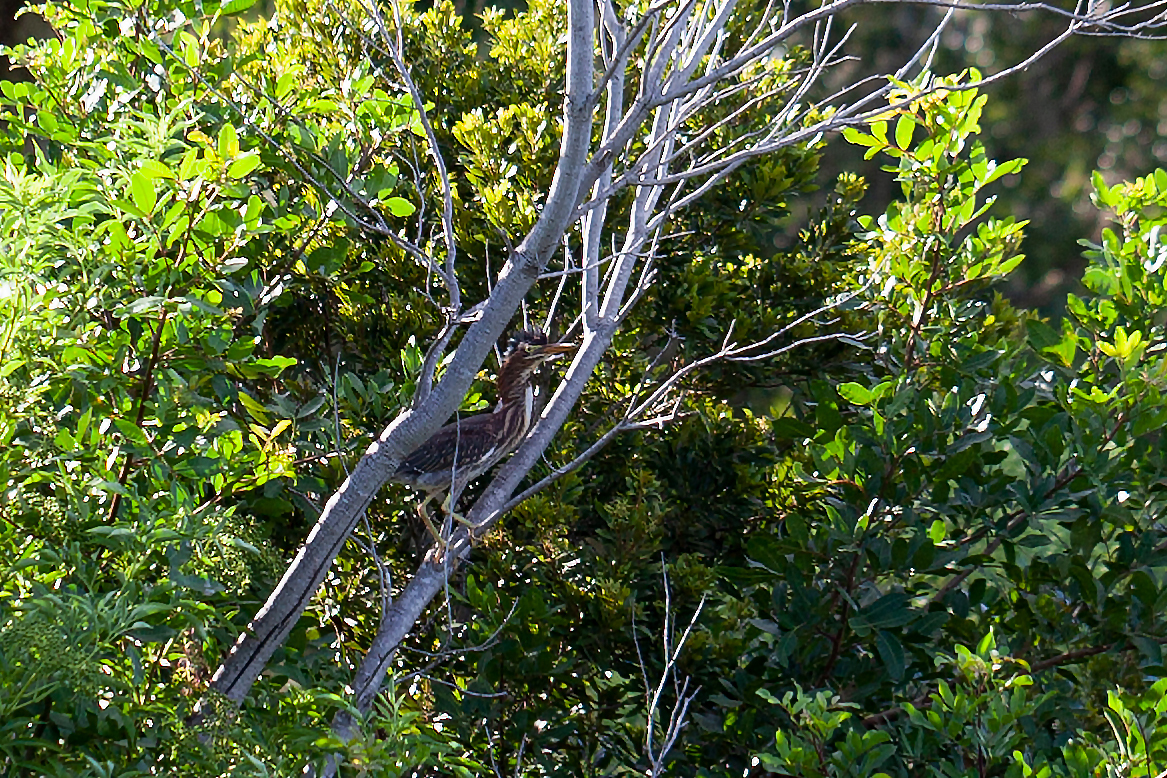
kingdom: Animalia
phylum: Chordata
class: Aves
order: Pelecaniformes
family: Ardeidae
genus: Butorides
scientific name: Butorides virescens
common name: Green heron
